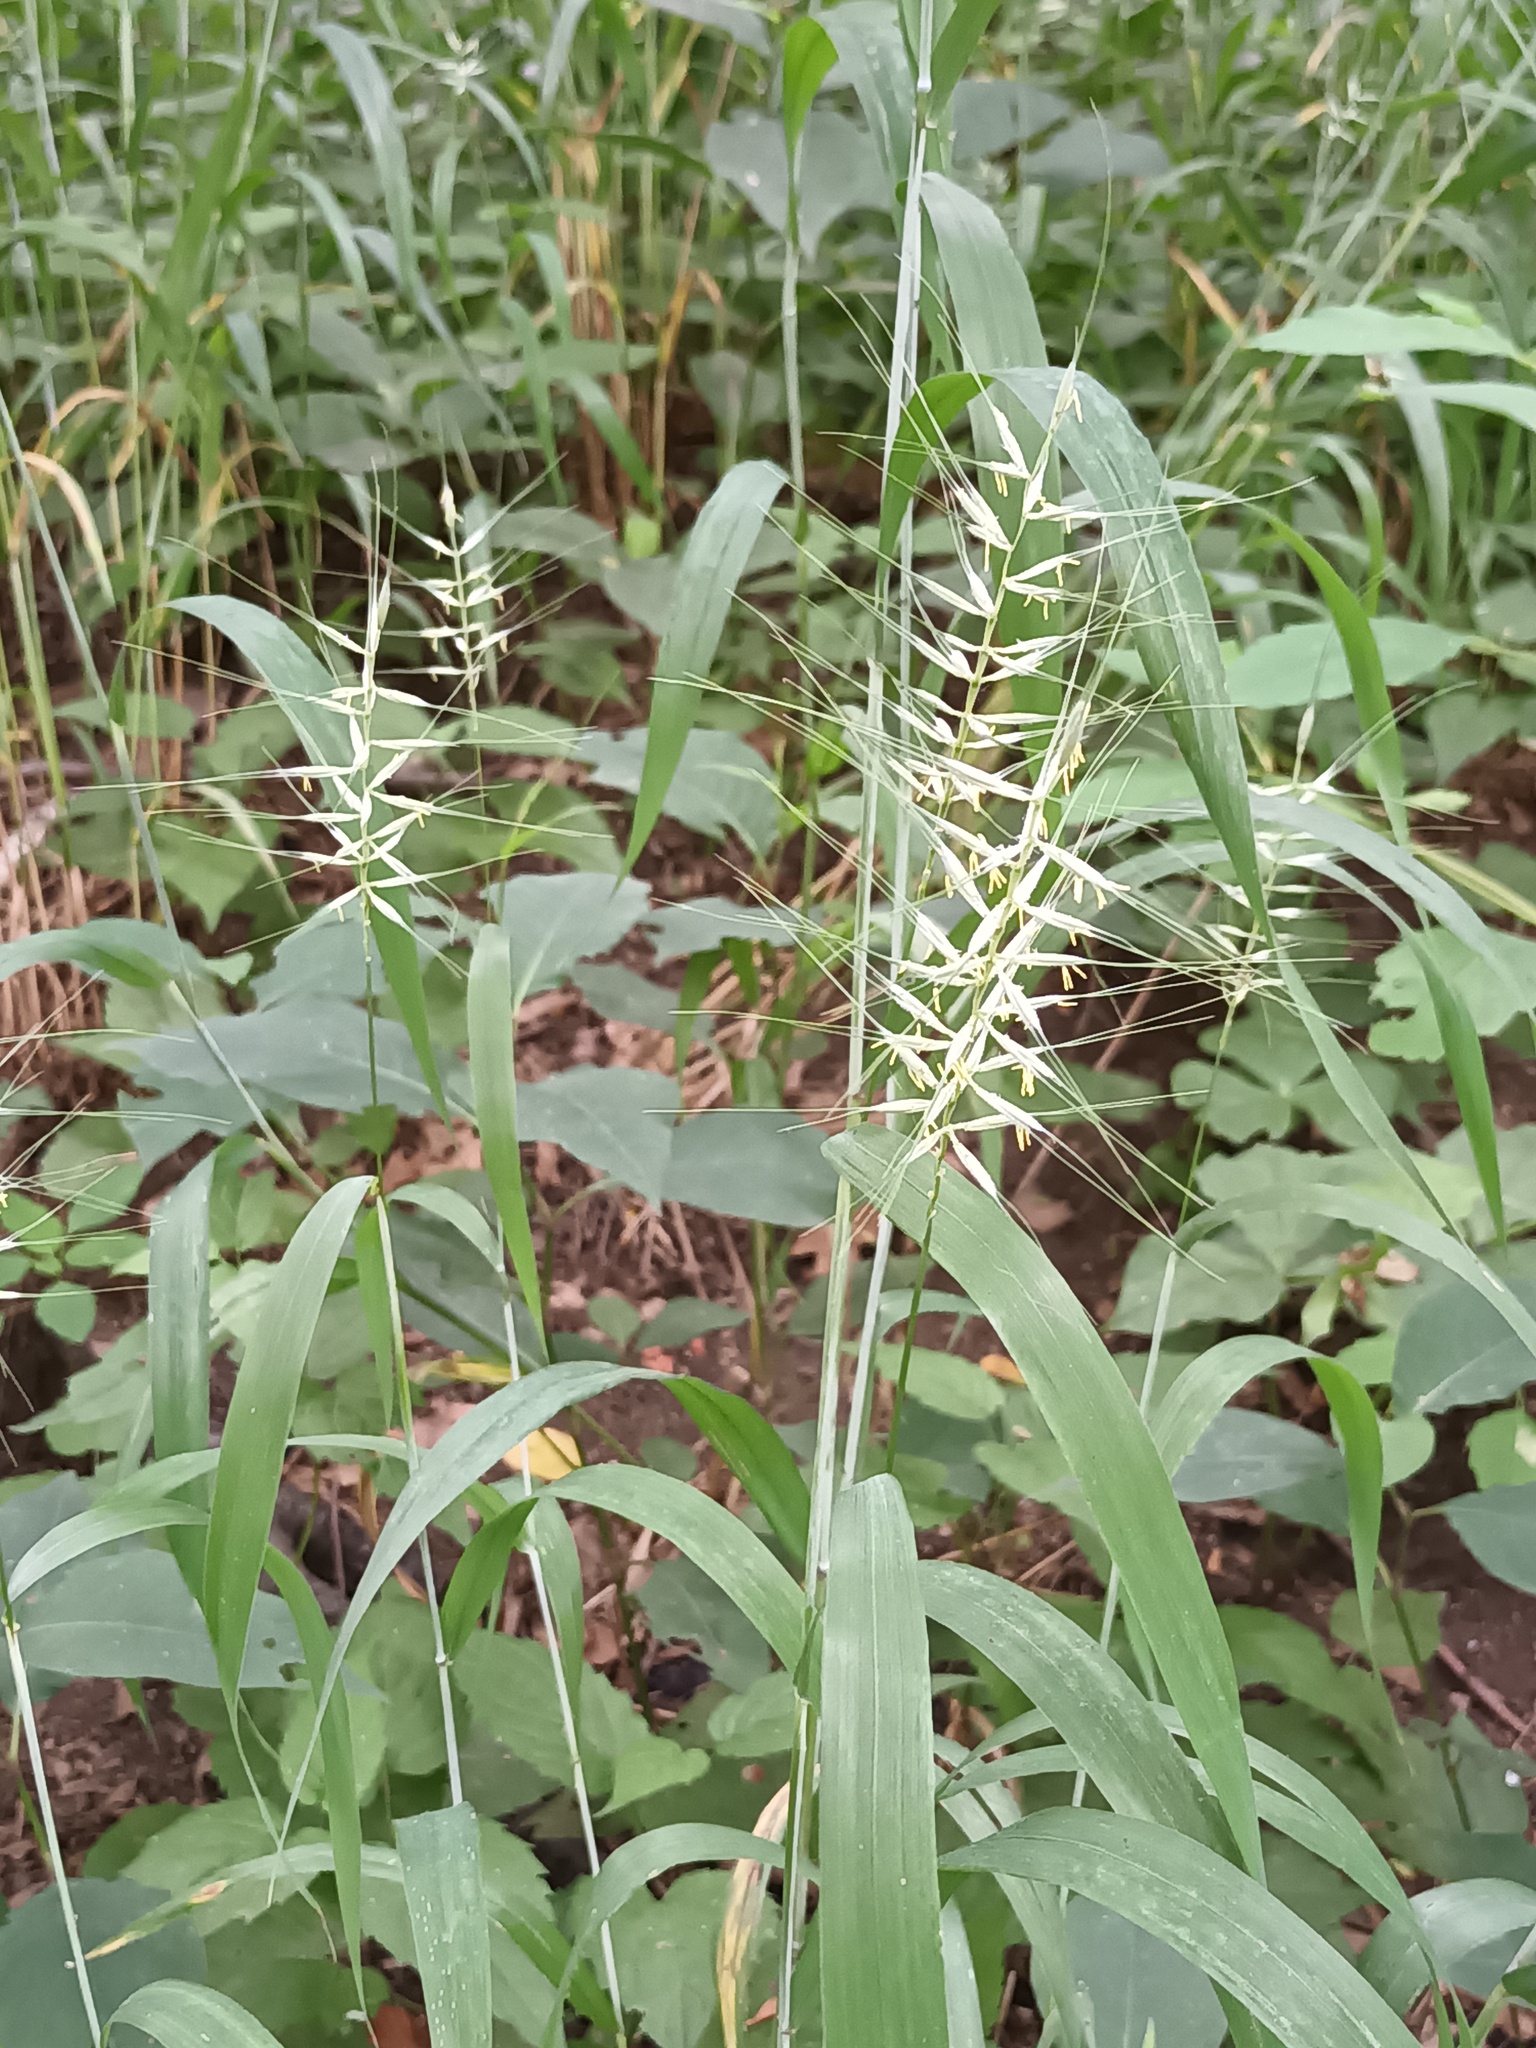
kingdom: Plantae
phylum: Tracheophyta
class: Liliopsida
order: Poales
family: Poaceae
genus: Elymus
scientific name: Elymus hystrix
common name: Bottlebrush grass
